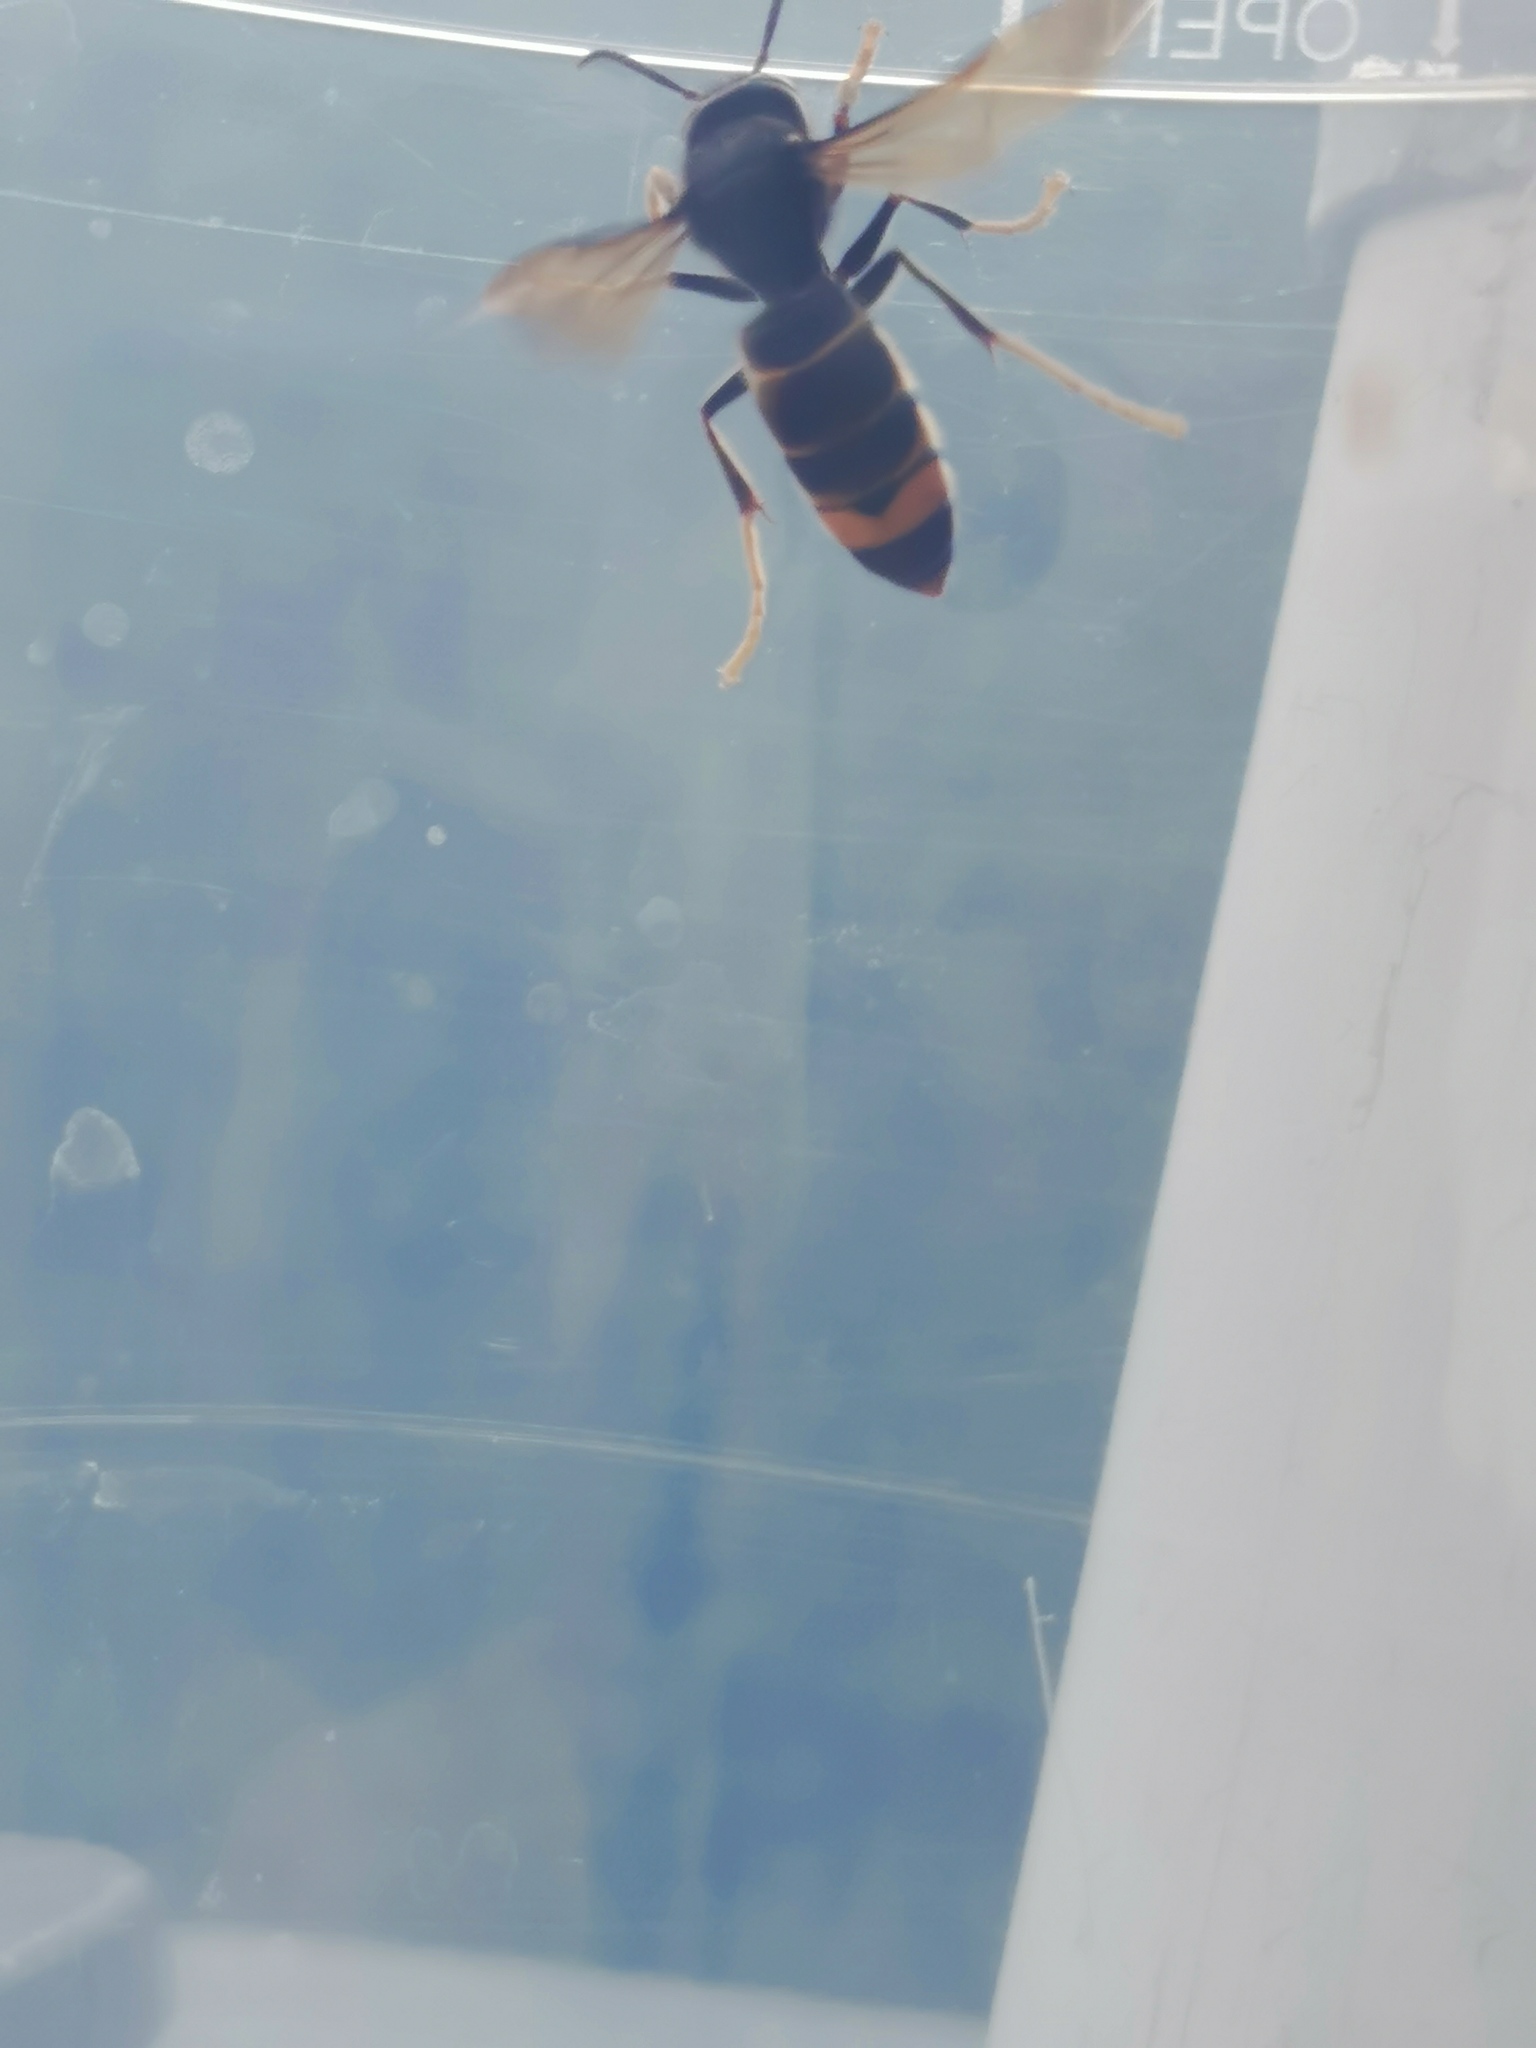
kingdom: Animalia
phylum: Arthropoda
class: Insecta
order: Hymenoptera
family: Vespidae
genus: Vespa
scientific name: Vespa velutina
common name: Asian hornet
